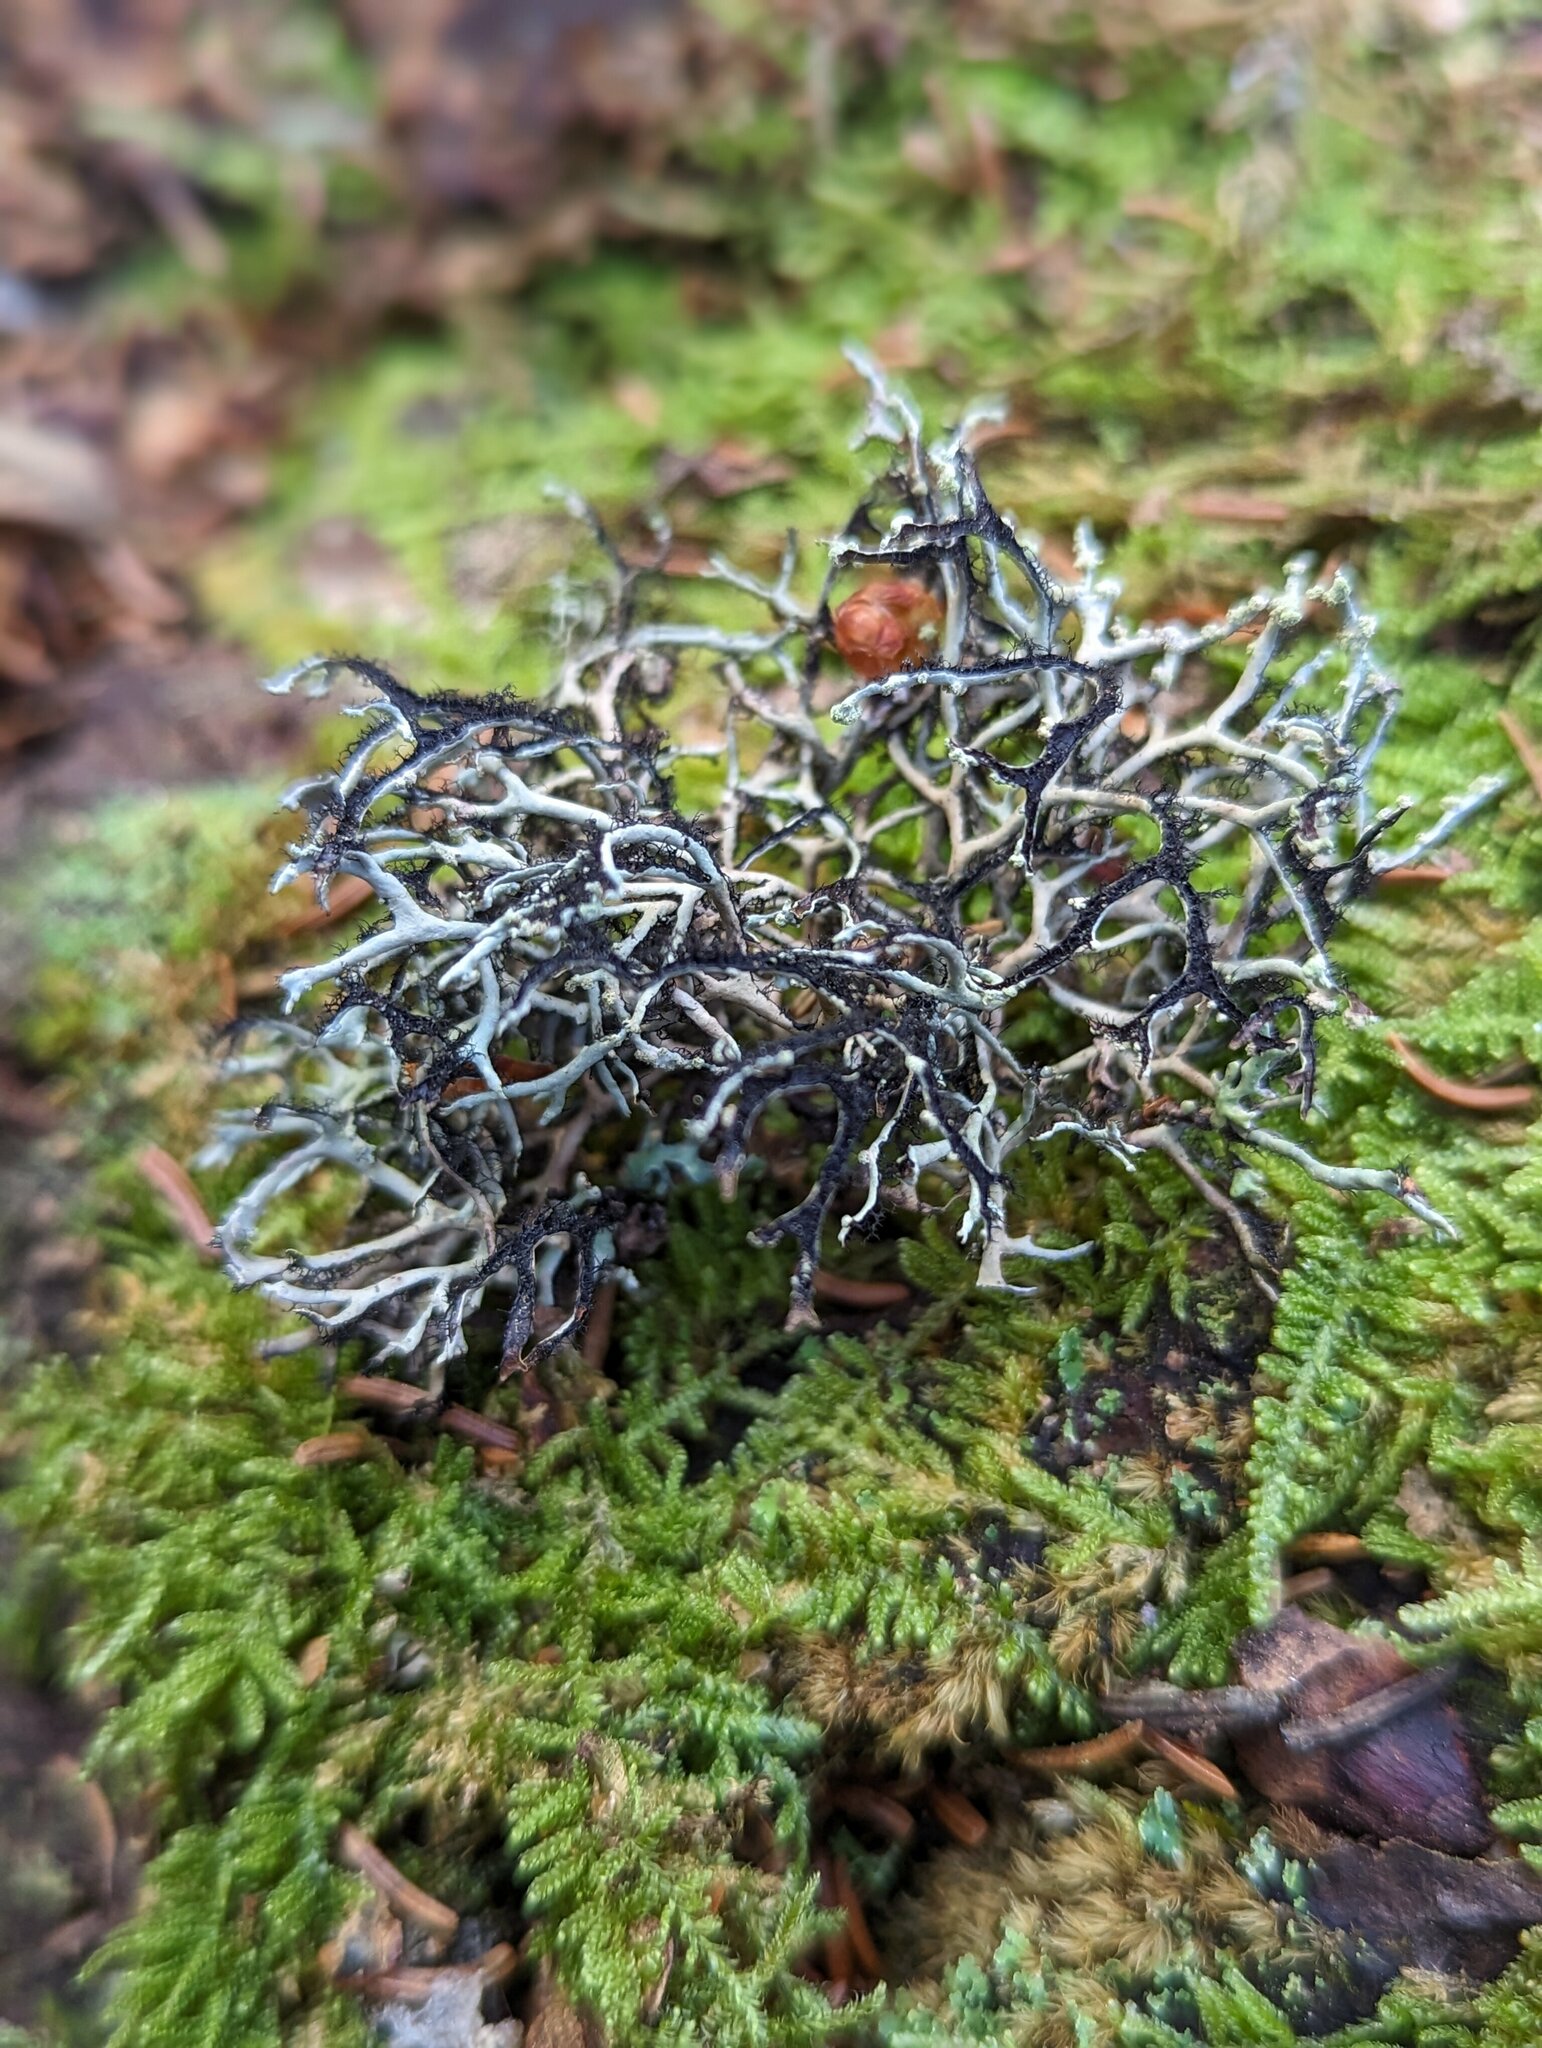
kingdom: Fungi
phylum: Ascomycota
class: Lecanoromycetes
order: Lecanorales
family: Parmeliaceae
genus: Hypotrachyna
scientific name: Hypotrachyna catawbiensis
